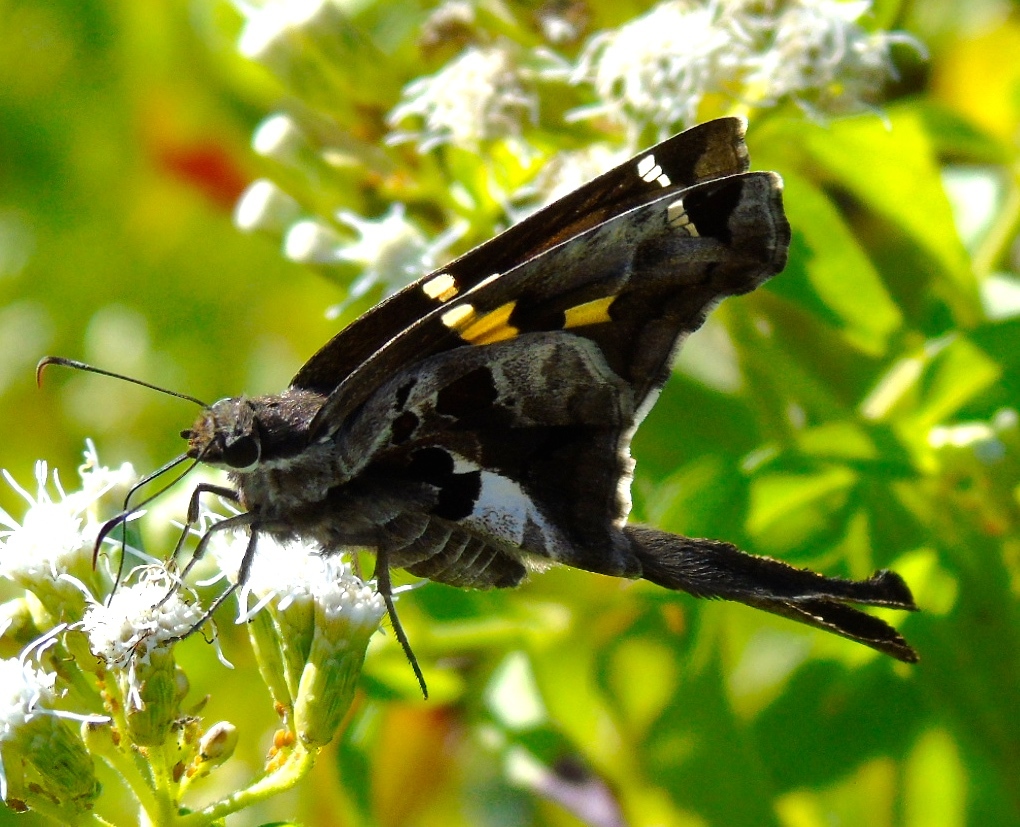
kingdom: Animalia
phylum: Arthropoda
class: Insecta
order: Lepidoptera
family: Hesperiidae
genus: Chioides
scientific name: Chioides zilpa
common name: Zilpa longtail
